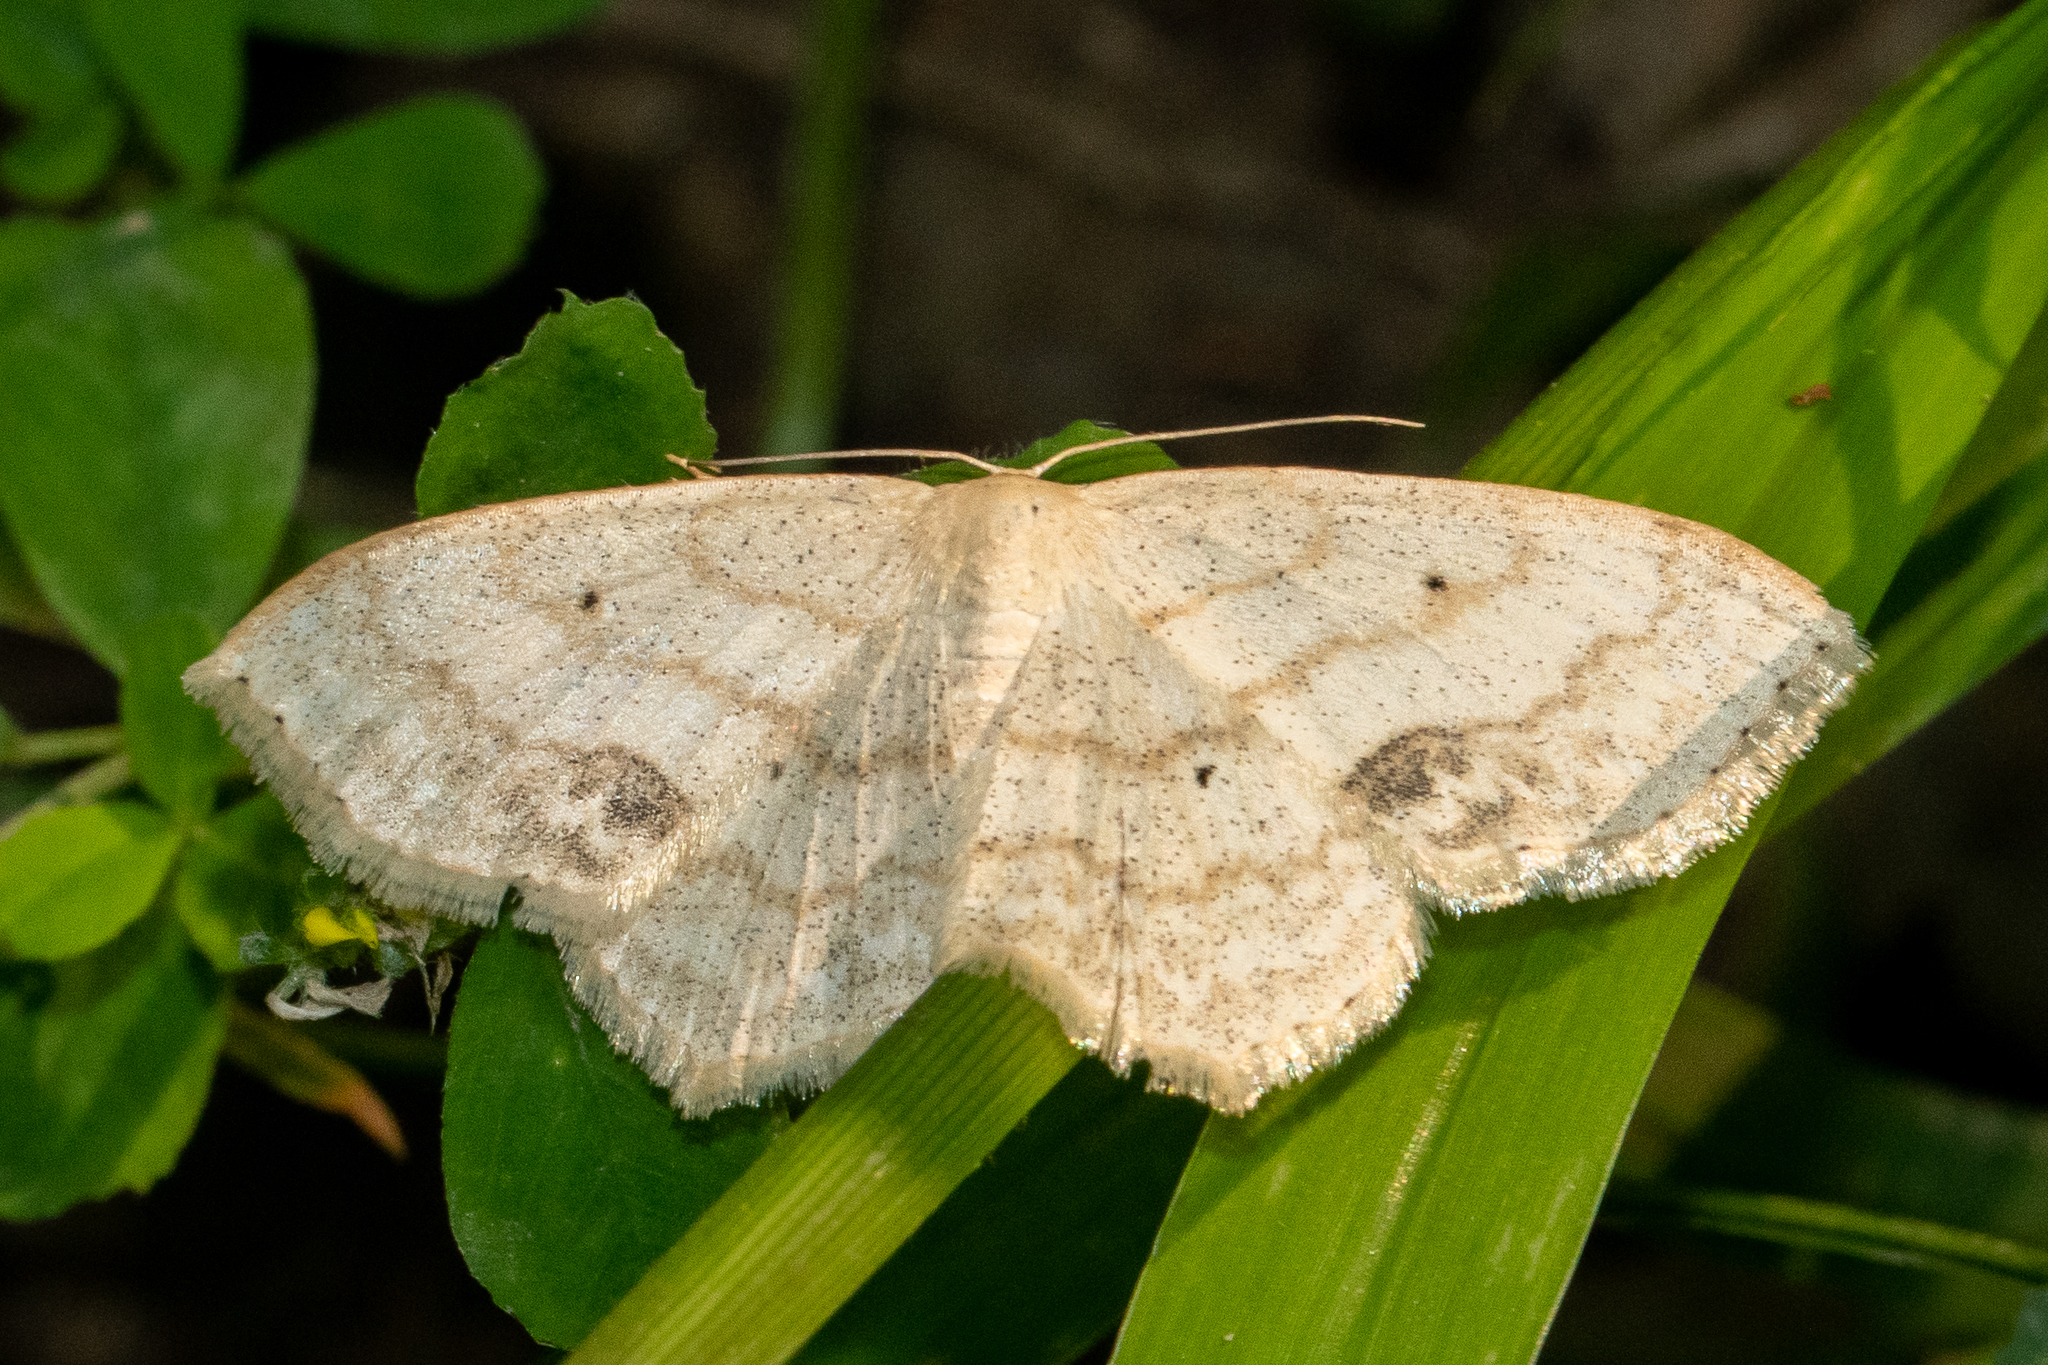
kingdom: Animalia
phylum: Arthropoda
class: Insecta
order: Lepidoptera
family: Geometridae
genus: Scopula
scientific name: Scopula limboundata
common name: Large lace border
